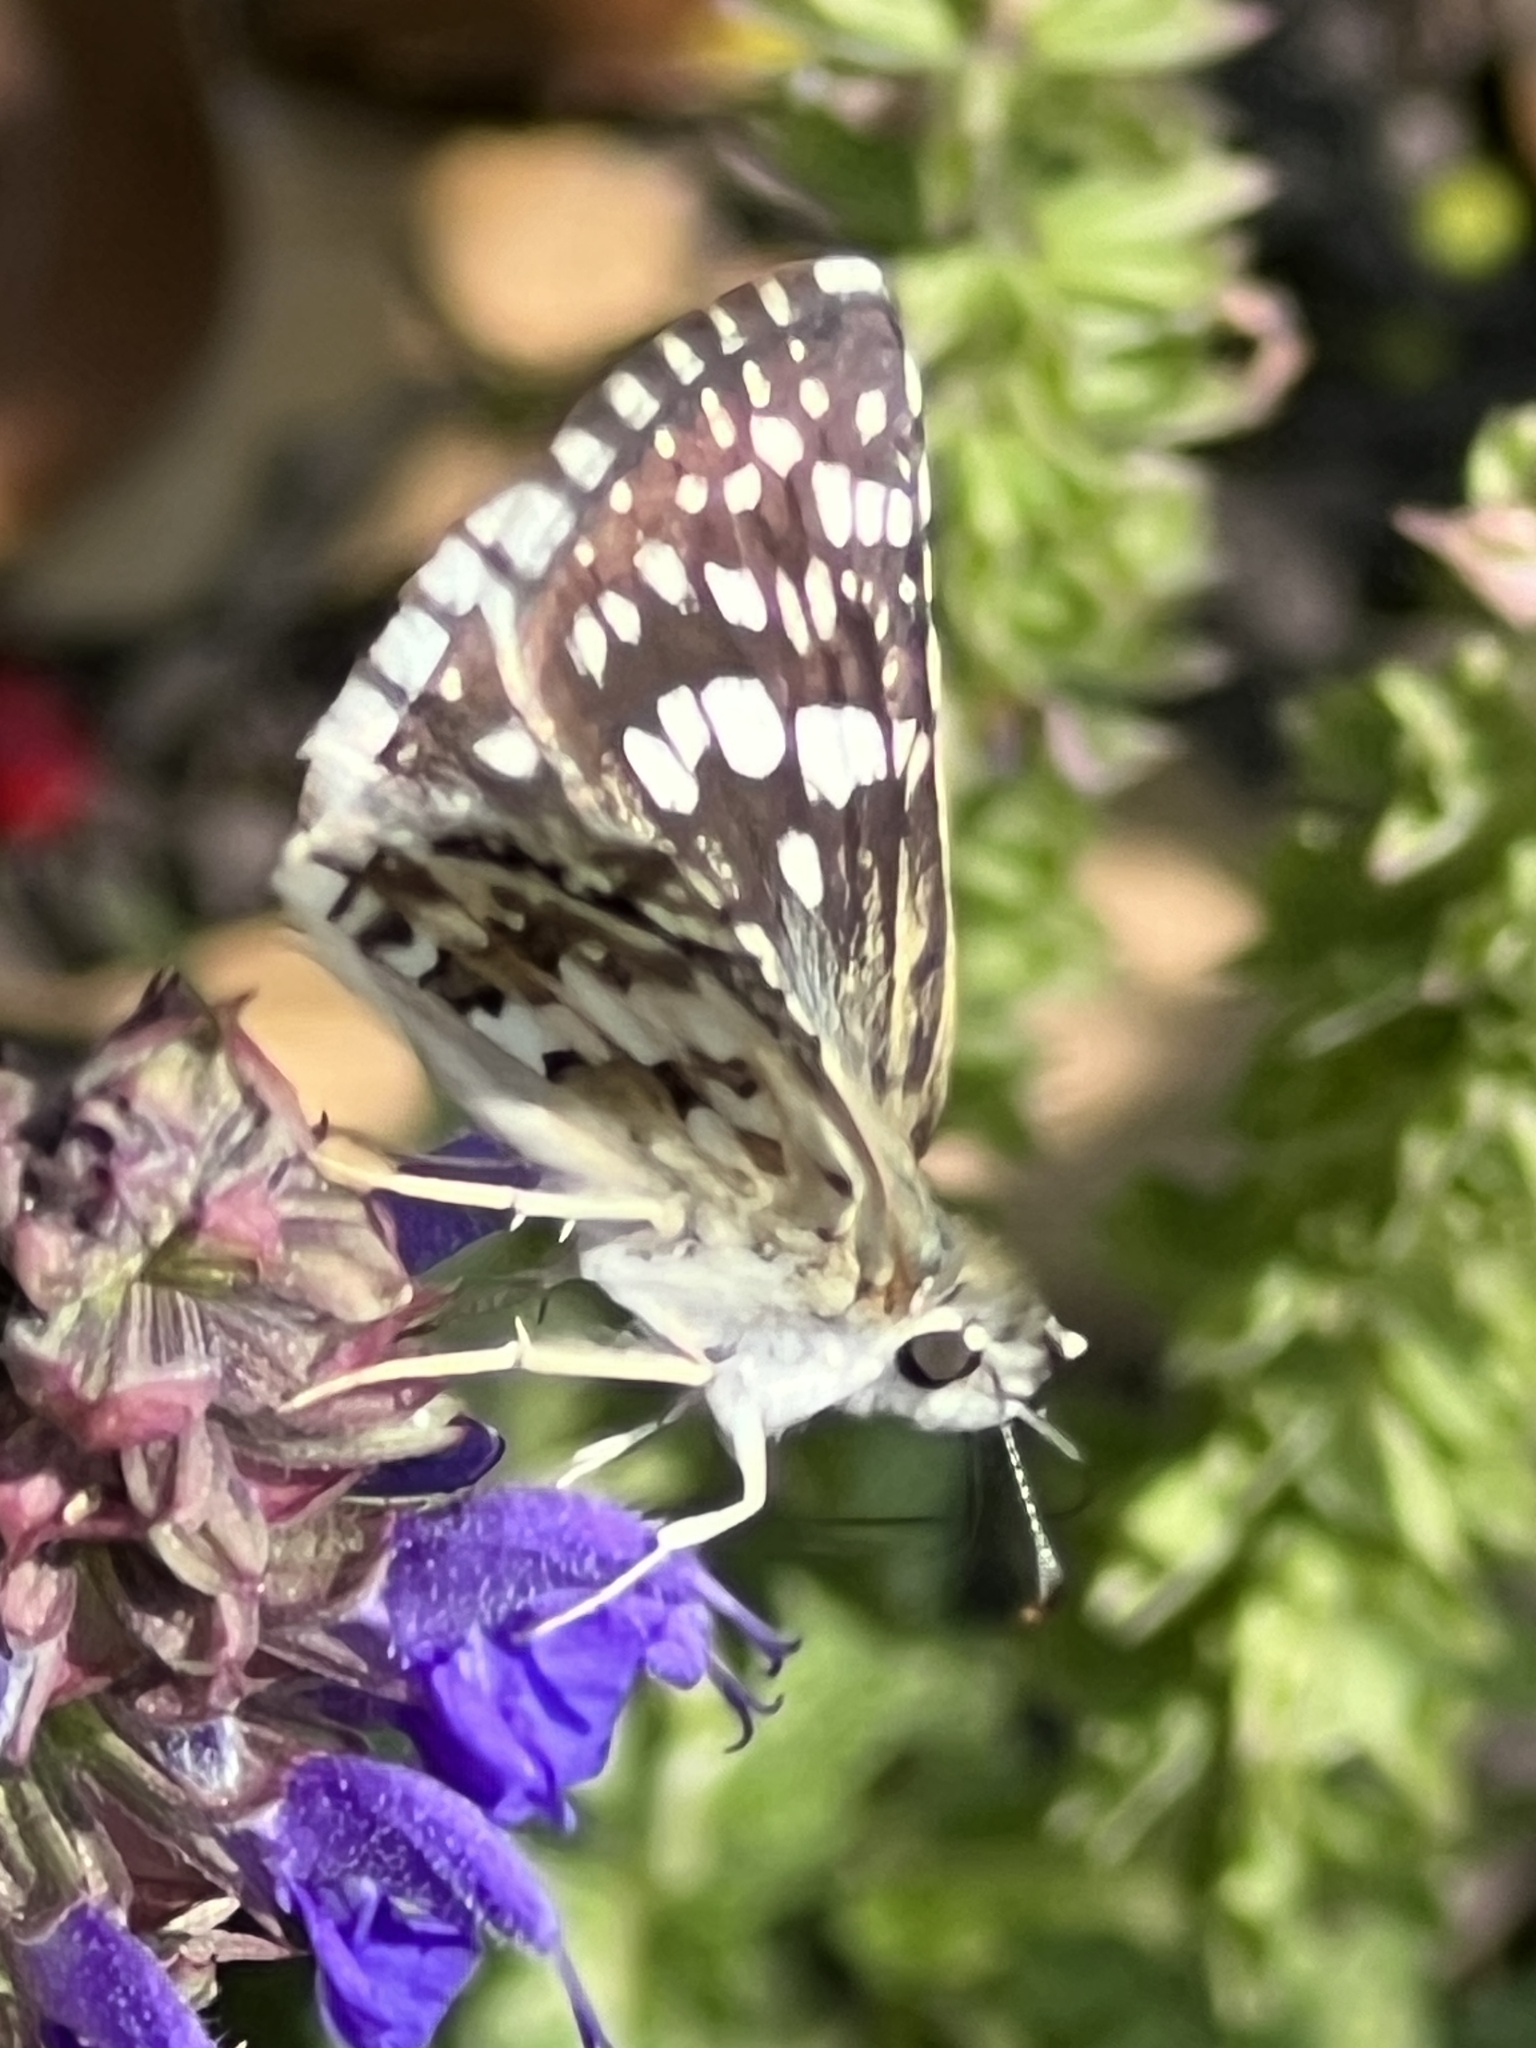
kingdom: Animalia
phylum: Arthropoda
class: Insecta
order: Lepidoptera
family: Hesperiidae
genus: Burnsius
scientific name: Burnsius communis
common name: Common checkered-skipper
